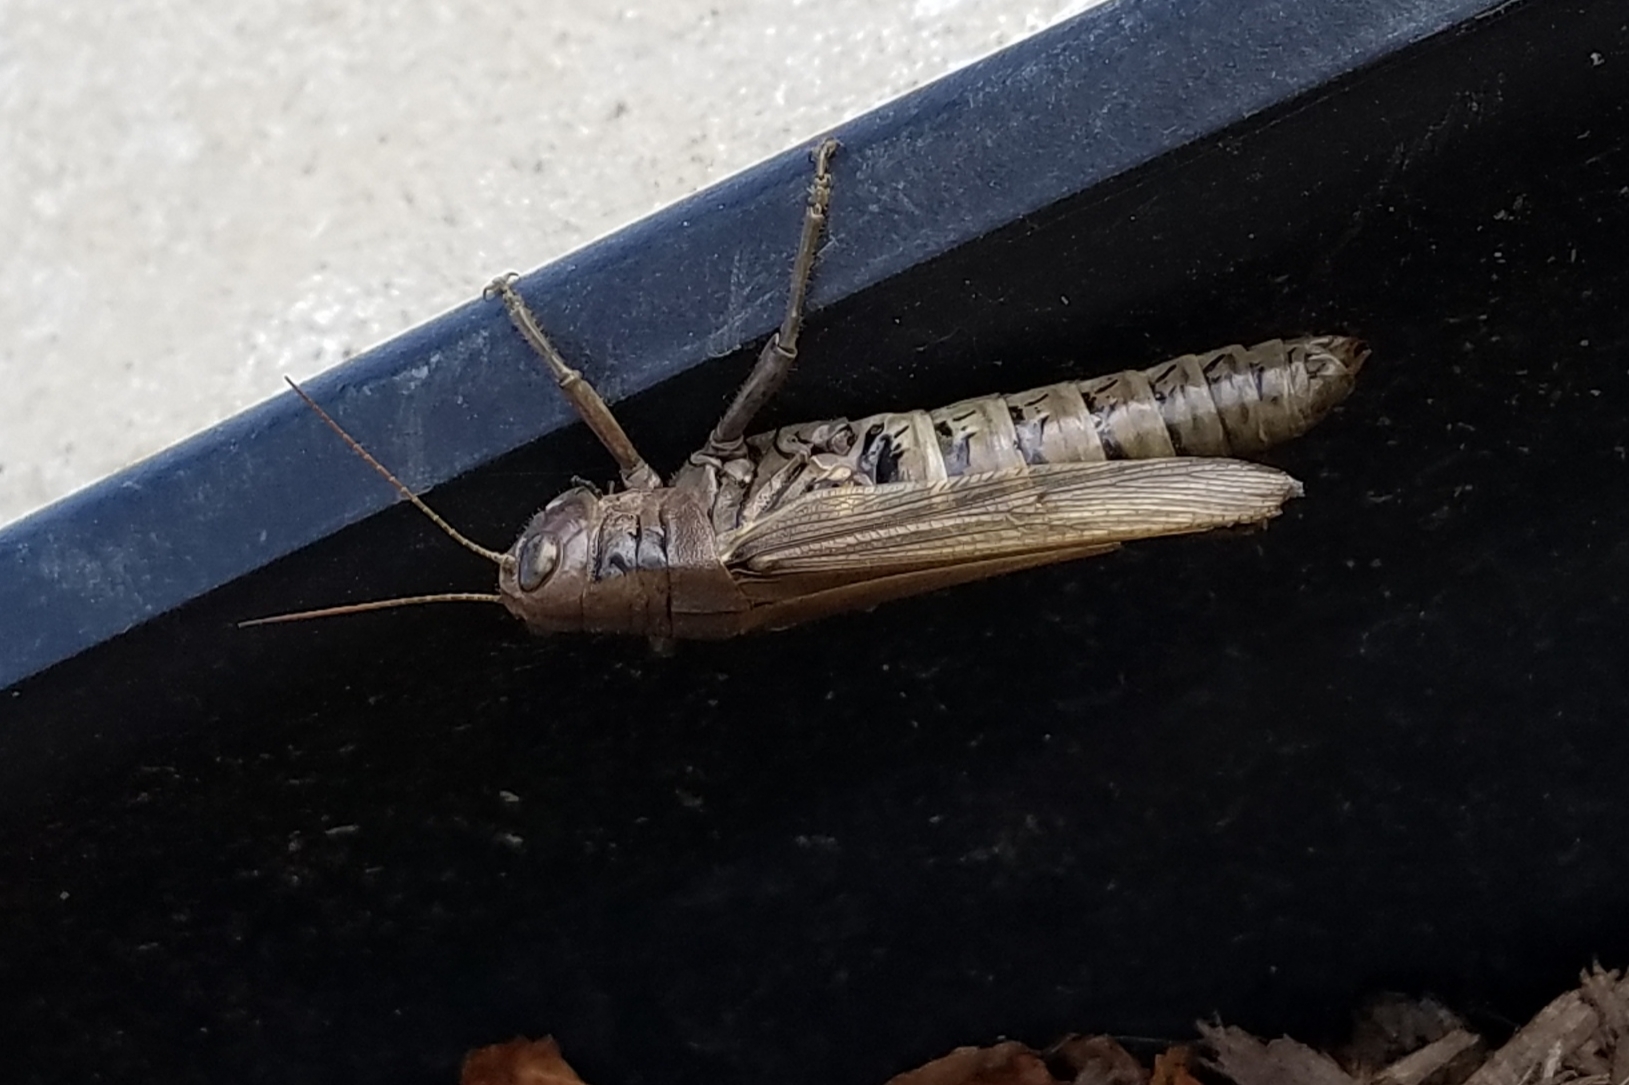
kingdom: Animalia
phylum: Arthropoda
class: Insecta
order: Orthoptera
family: Acrididae
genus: Melanoplus
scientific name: Melanoplus differentialis
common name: Differential grasshopper
